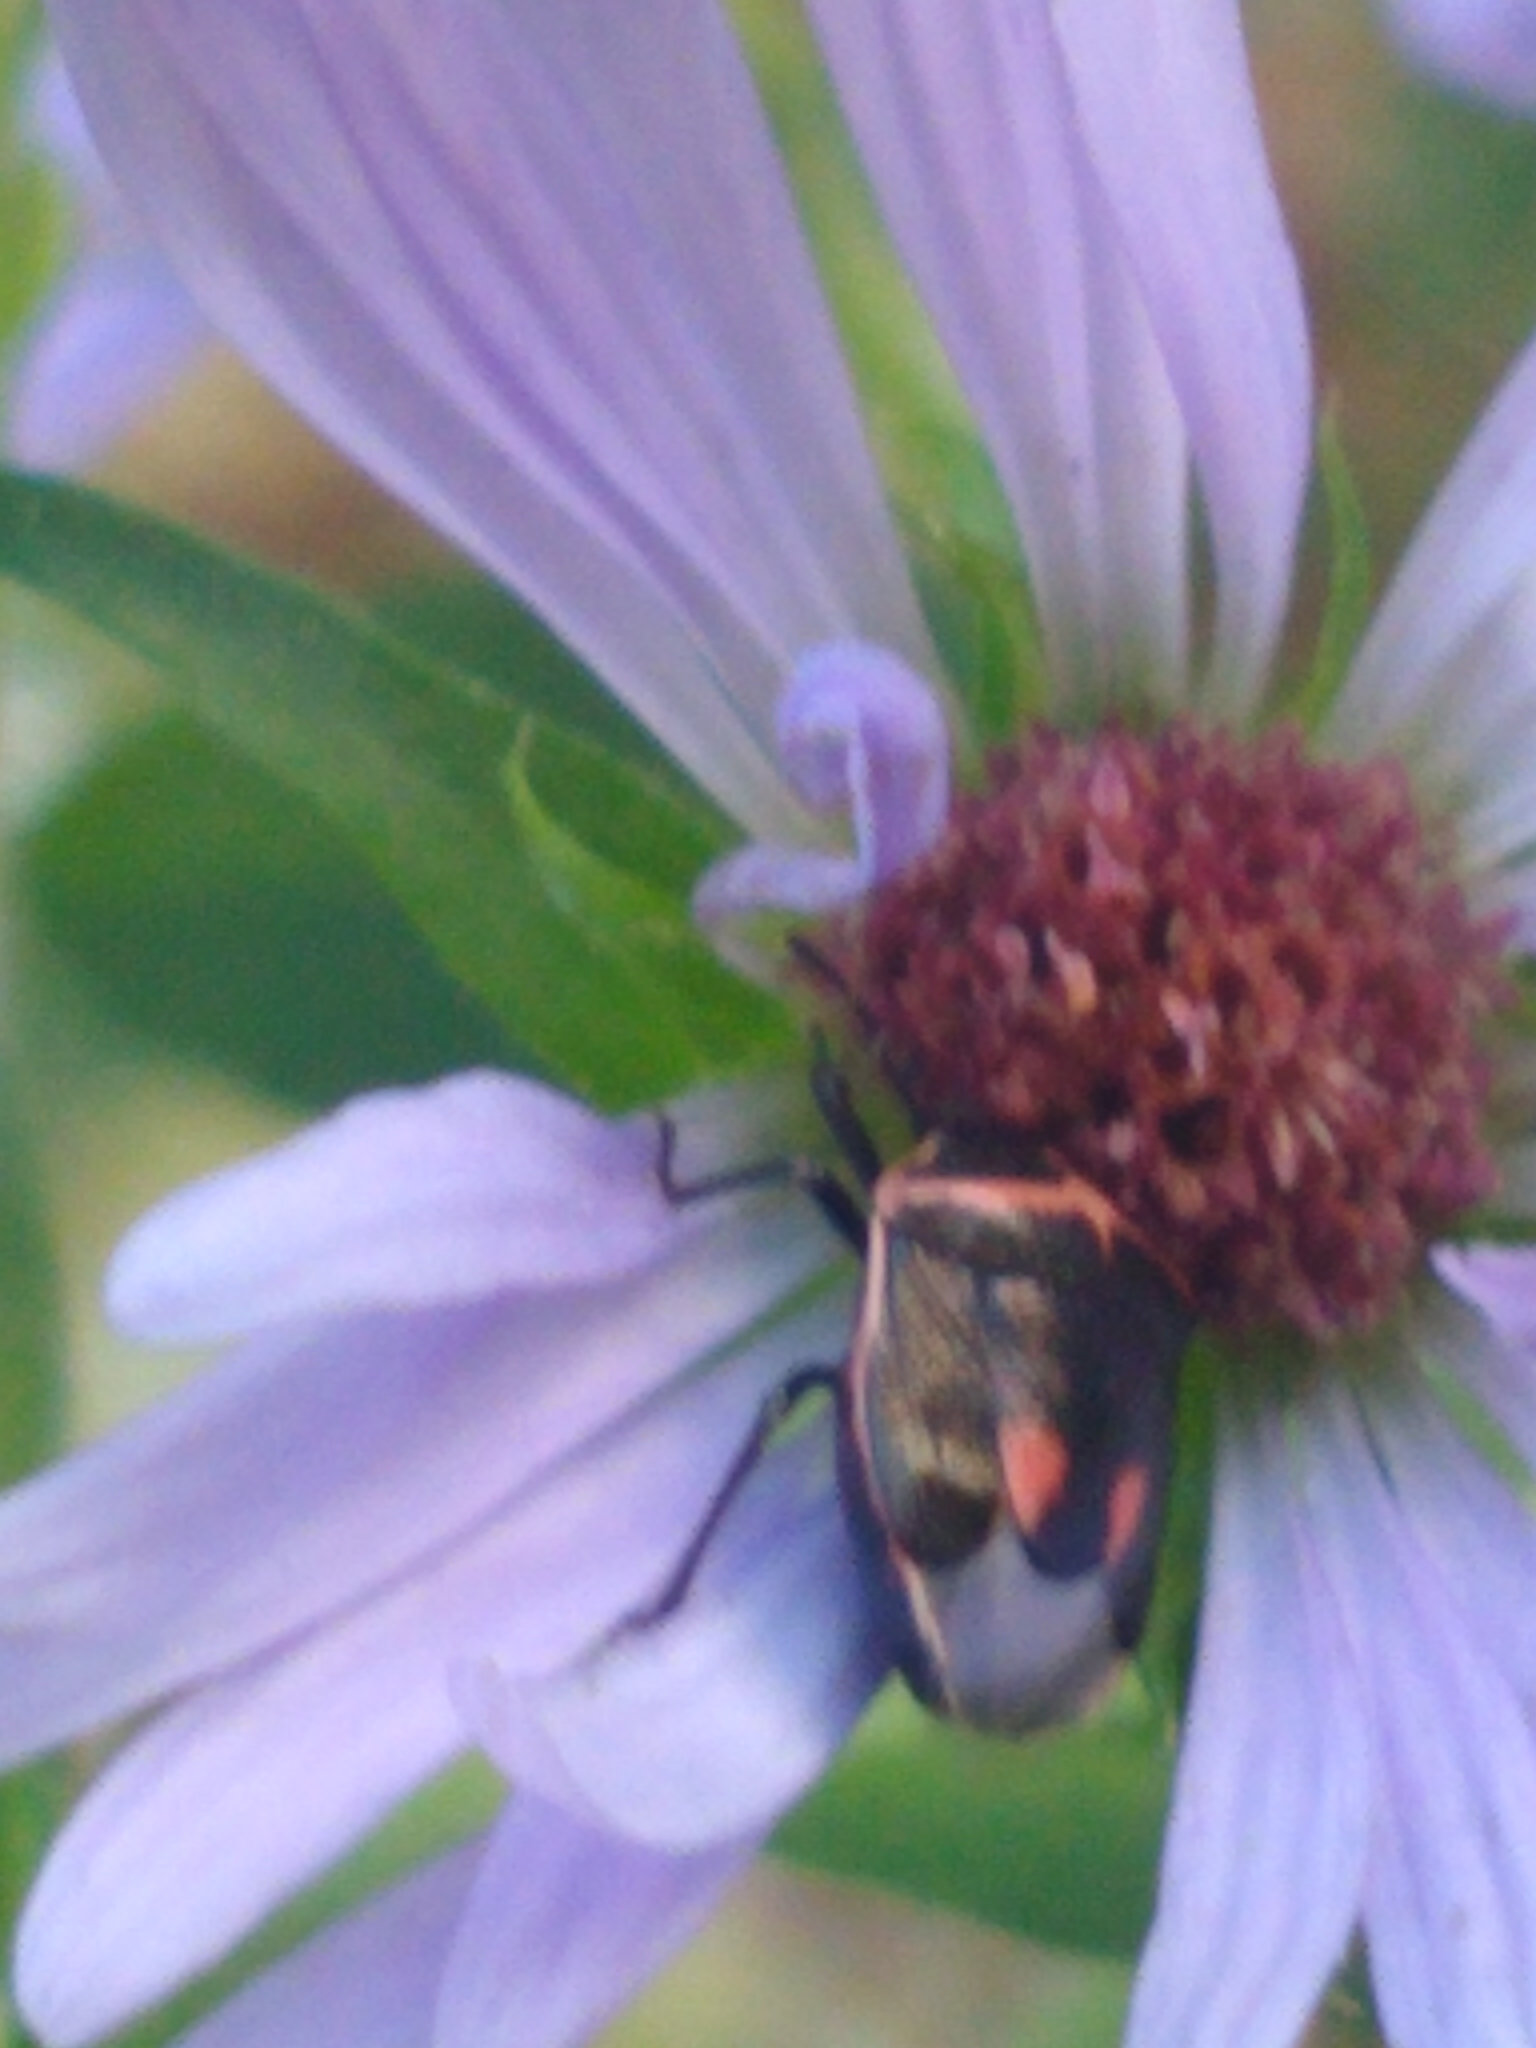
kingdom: Animalia
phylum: Arthropoda
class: Insecta
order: Hemiptera
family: Pentatomidae
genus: Cosmopepla
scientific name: Cosmopepla lintneriana
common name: Twice-stabbed stink bug
